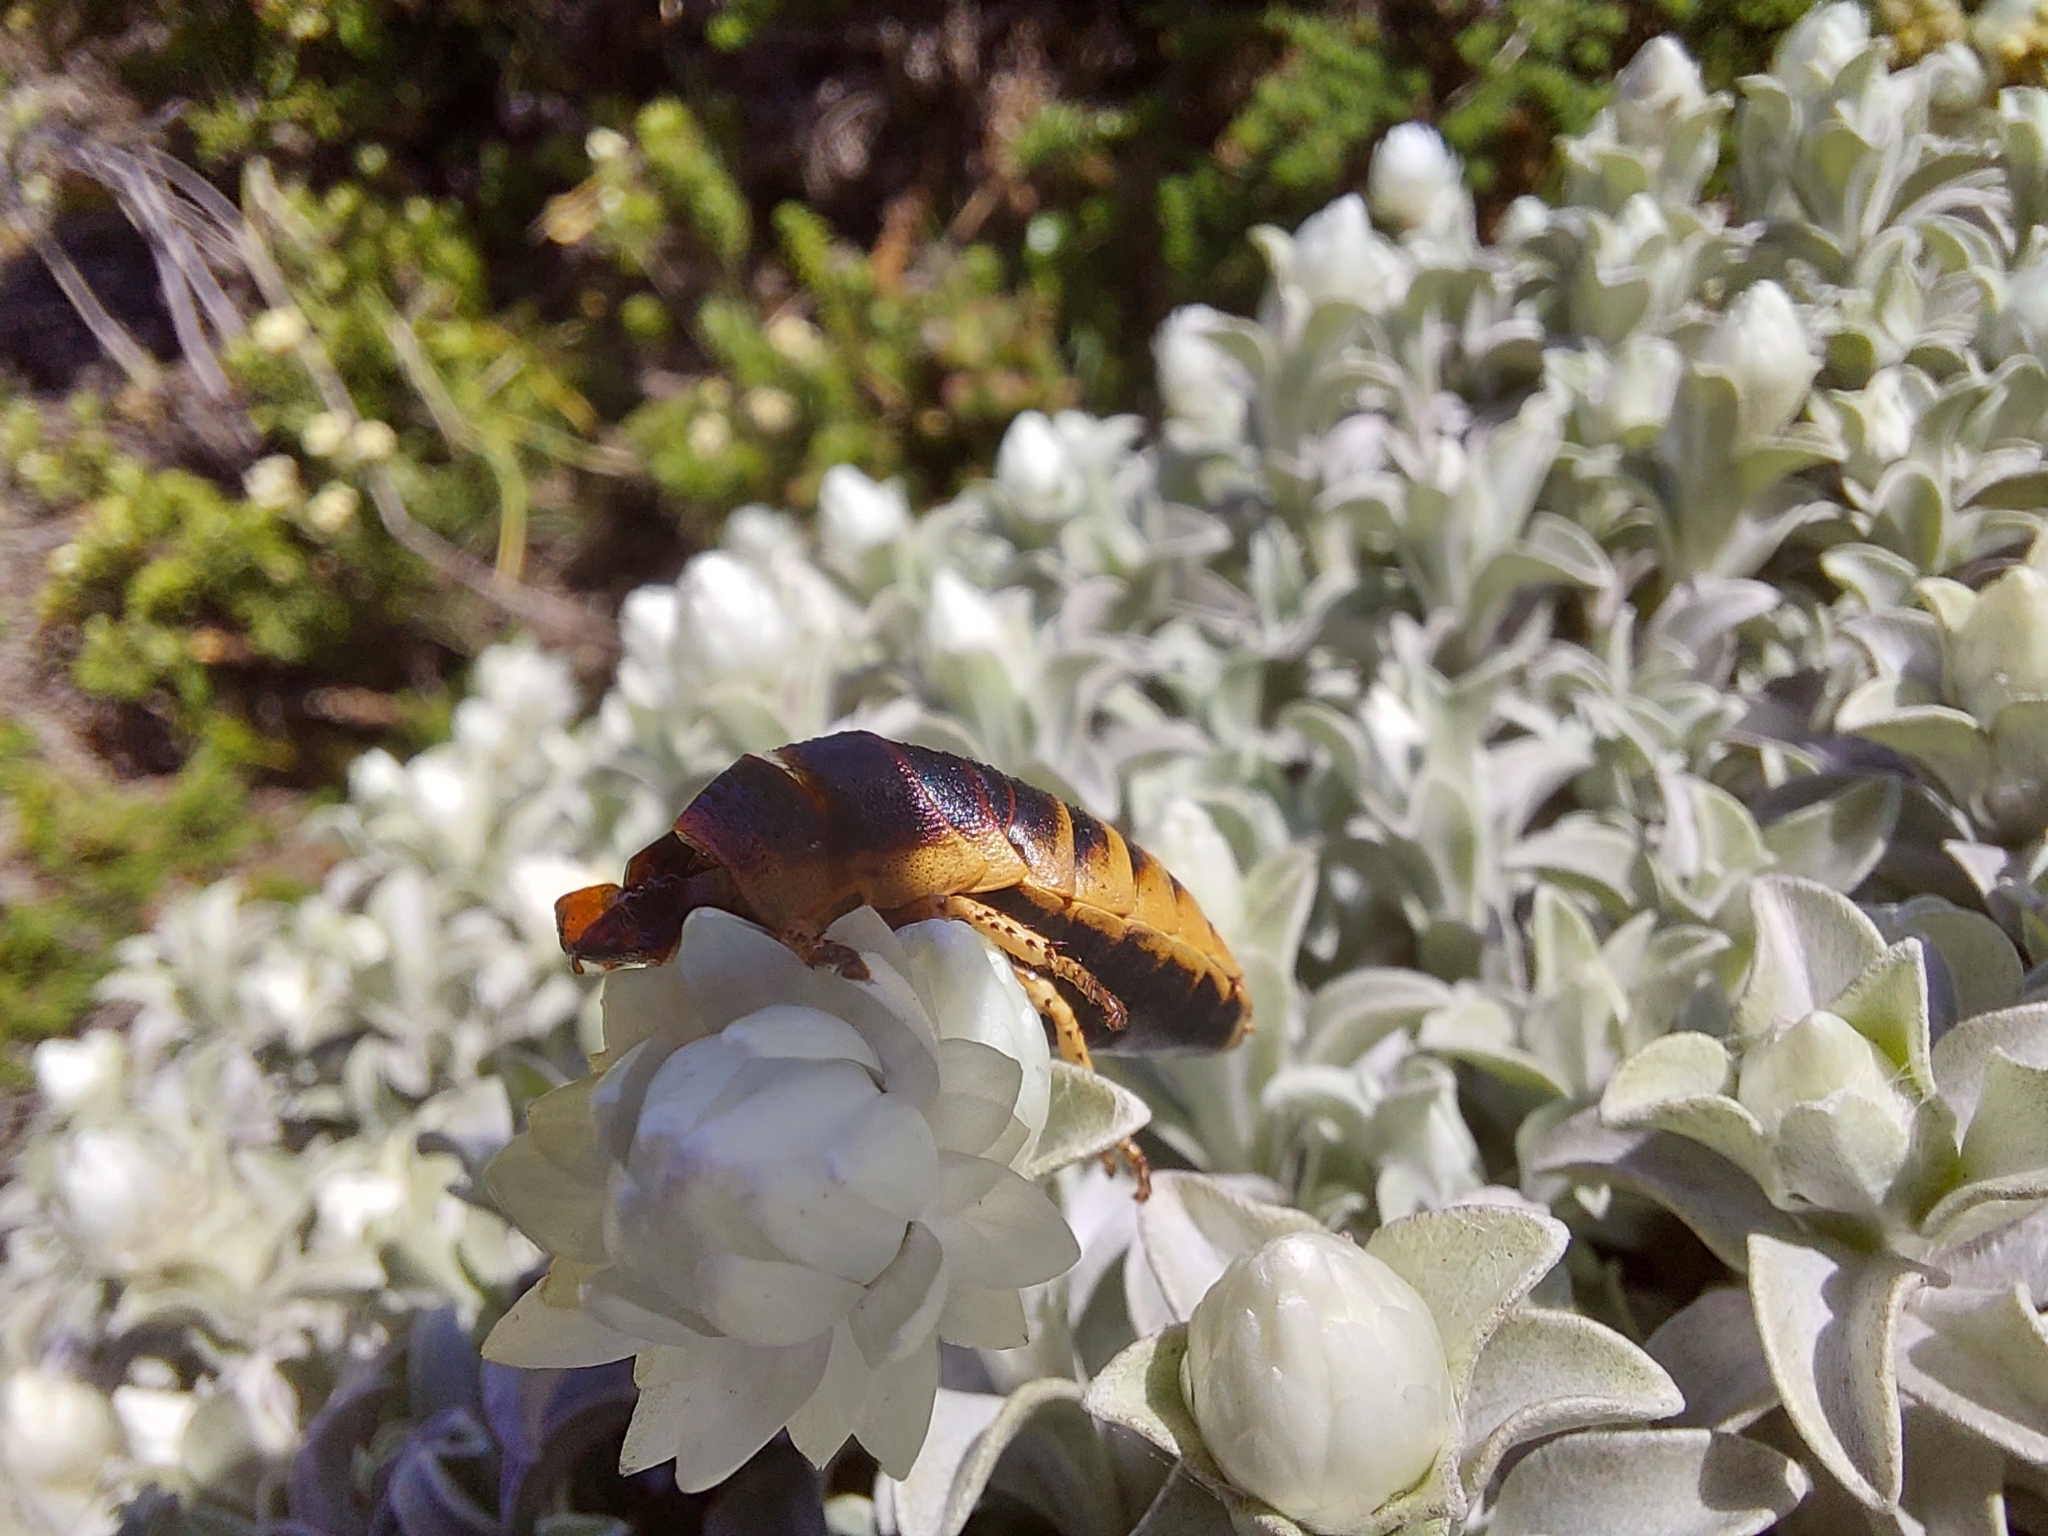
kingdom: Animalia
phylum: Arthropoda
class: Insecta
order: Blattodea
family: Blaberidae
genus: Aptera
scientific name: Aptera fusca
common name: Cape mountain cockroach
